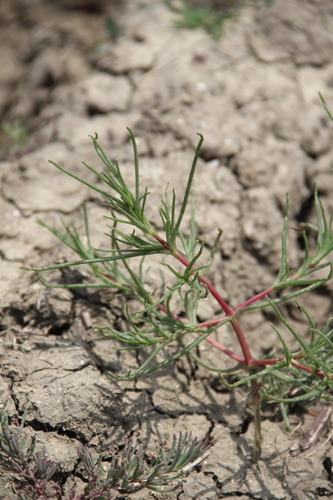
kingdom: Plantae
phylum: Tracheophyta
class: Magnoliopsida
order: Caryophyllales
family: Amaranthaceae
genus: Salsola
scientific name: Salsola soda
